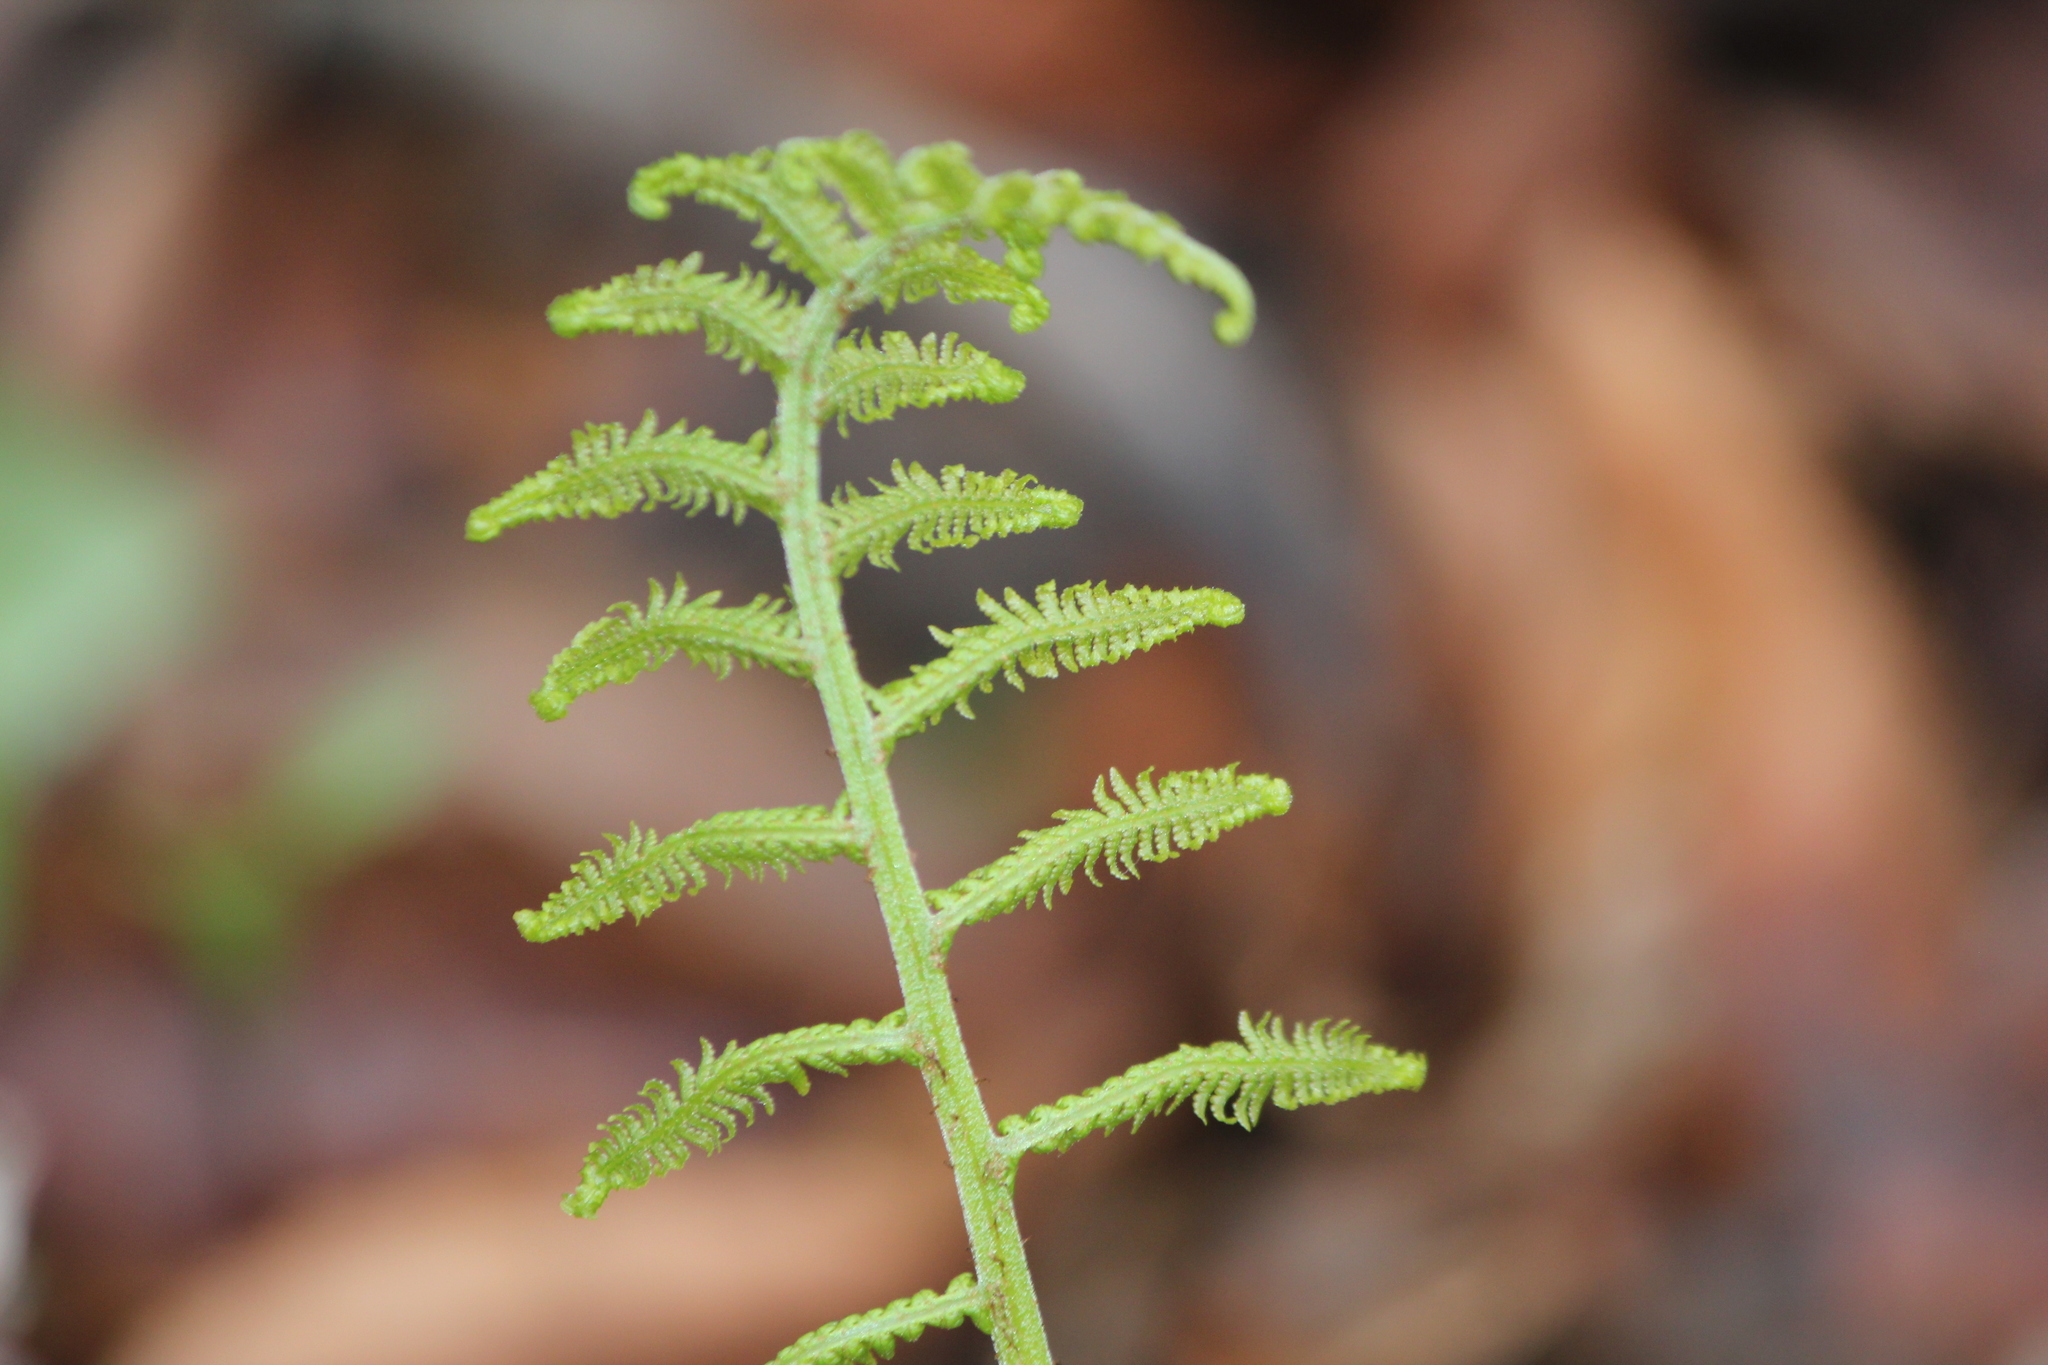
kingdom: Plantae
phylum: Tracheophyta
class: Polypodiopsida
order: Polypodiales
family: Athyriaceae
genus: Athyrium
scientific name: Athyrium angustum
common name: Northern lady fern
